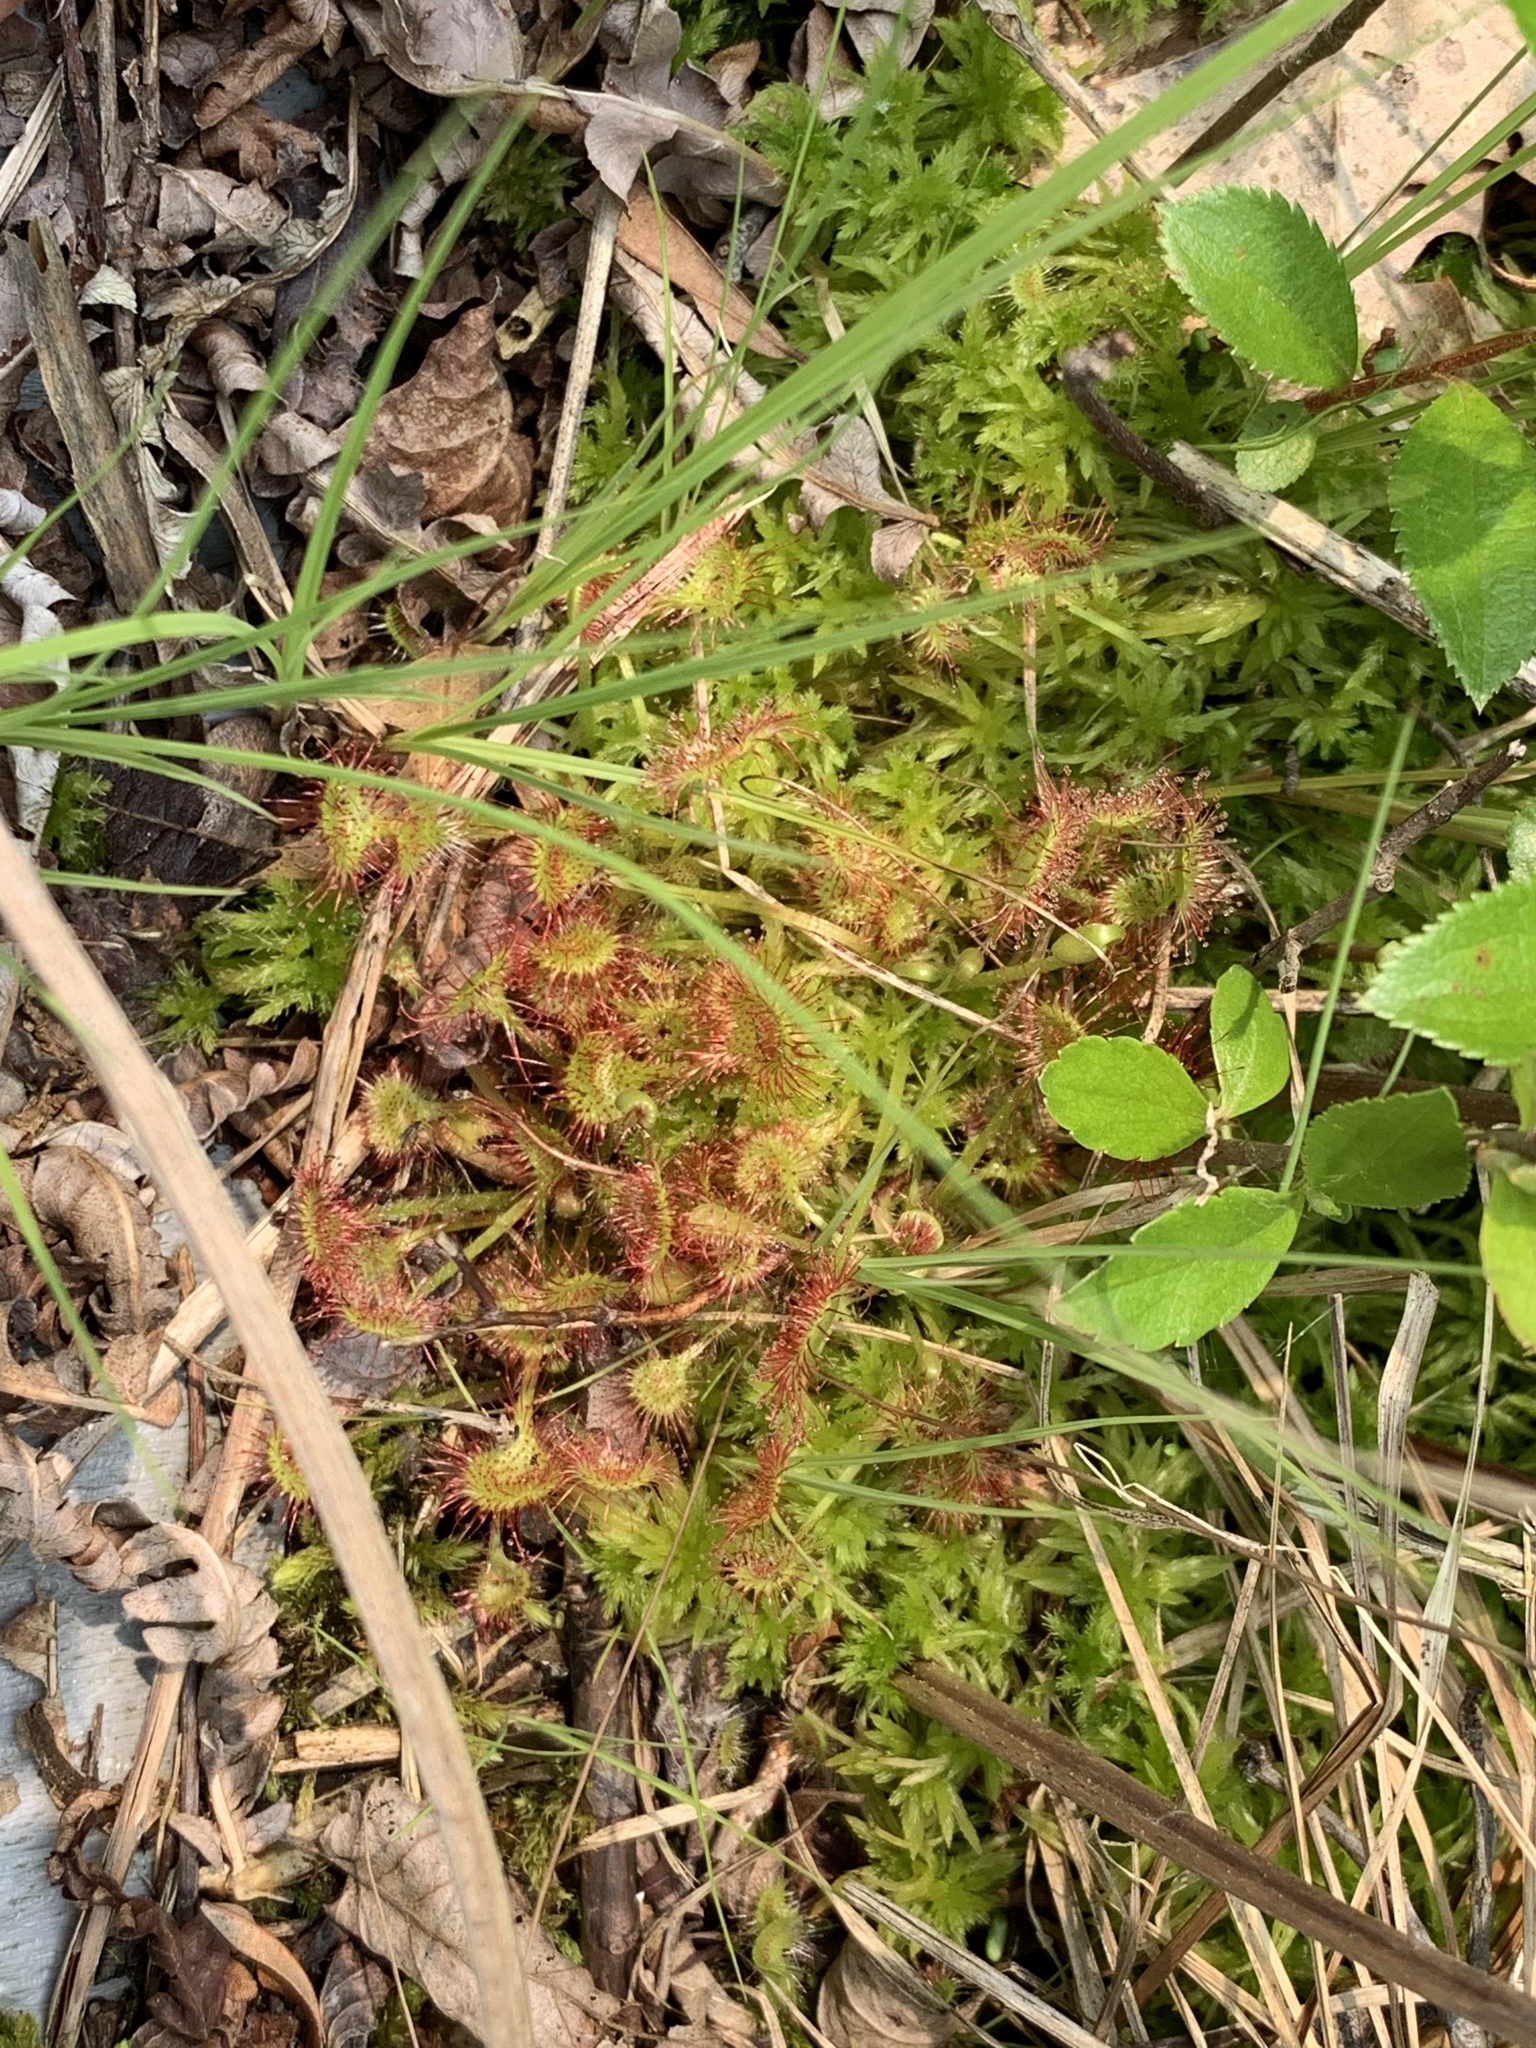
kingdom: Plantae
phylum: Tracheophyta
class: Magnoliopsida
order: Caryophyllales
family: Droseraceae
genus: Drosera
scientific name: Drosera rotundifolia
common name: Round-leaved sundew
